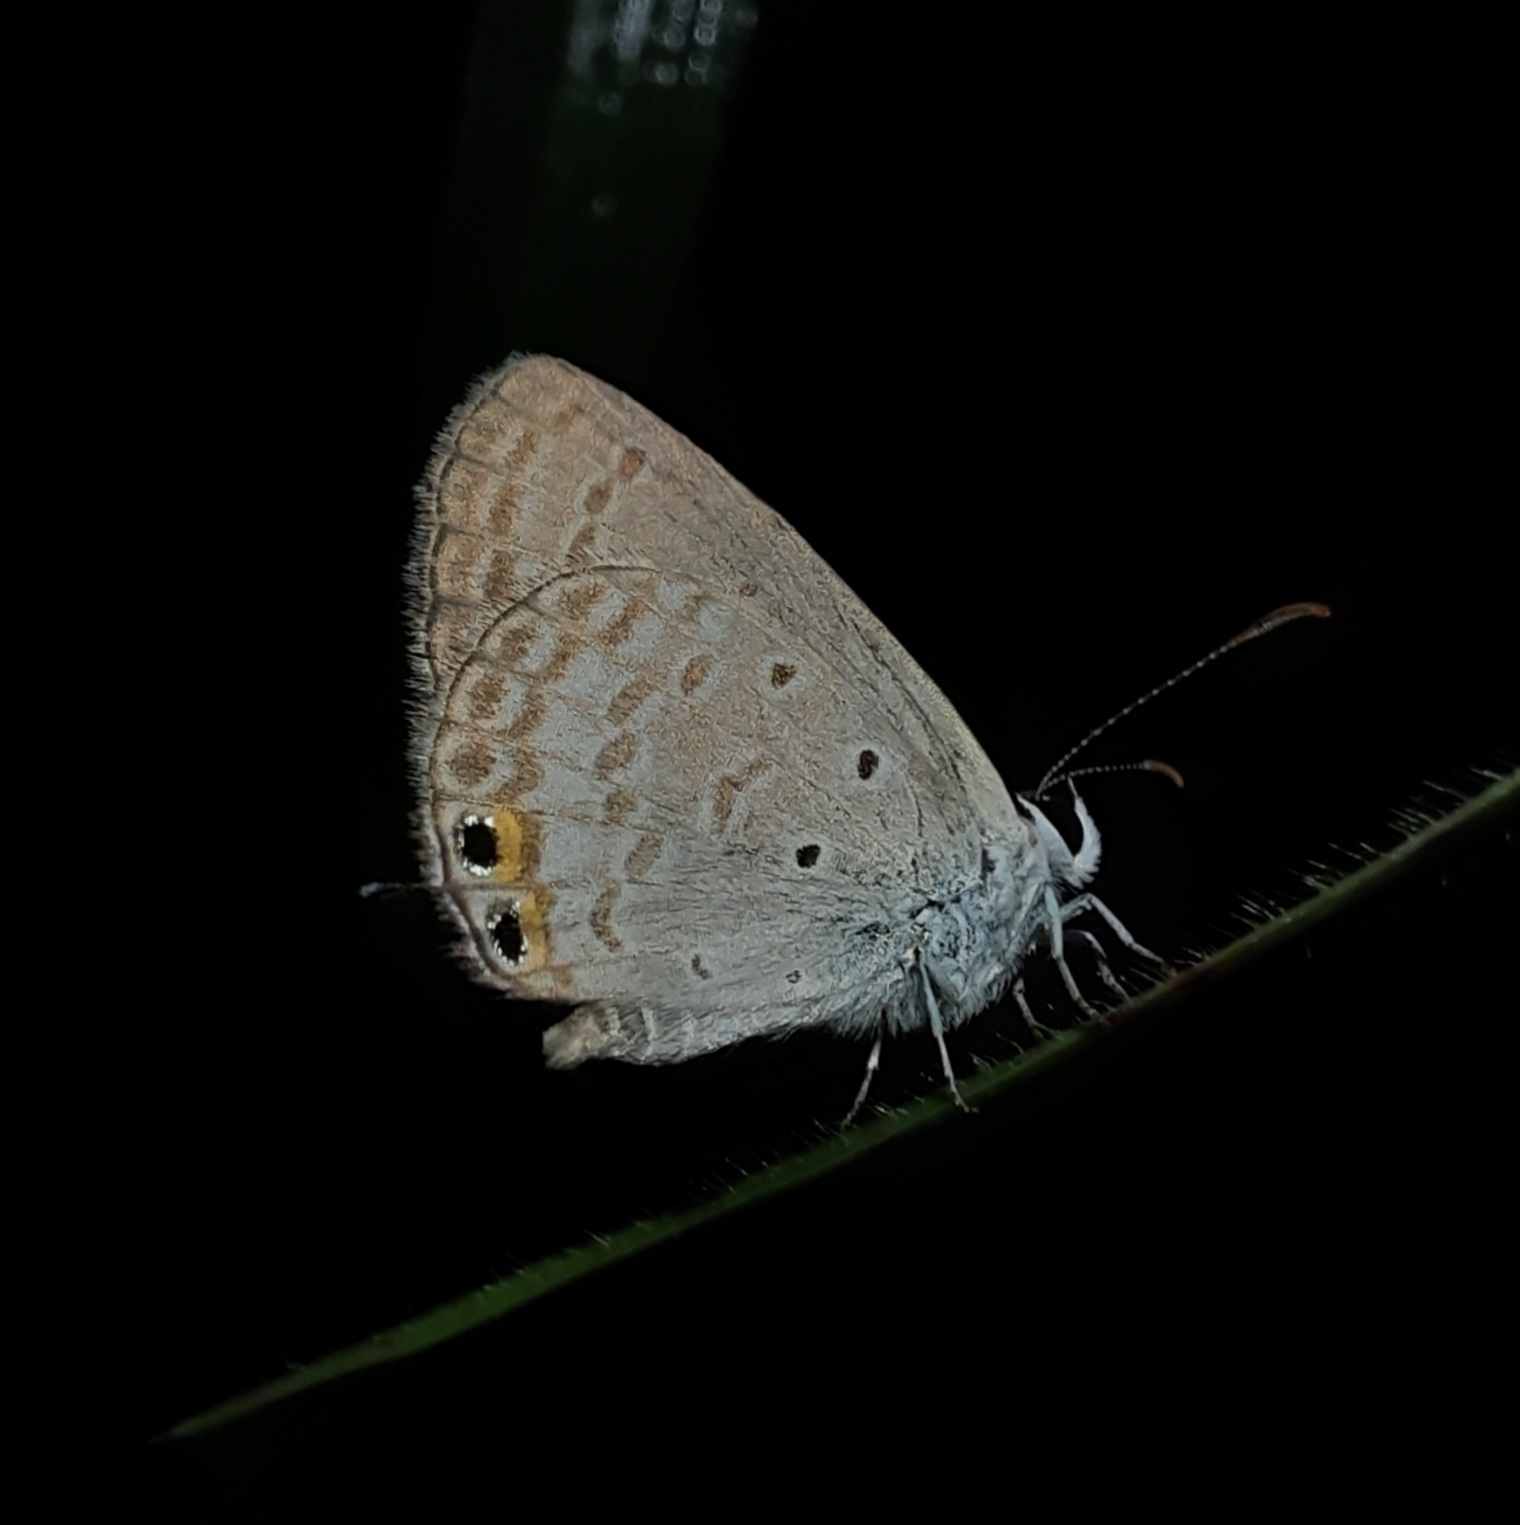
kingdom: Animalia
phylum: Arthropoda
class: Insecta
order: Lepidoptera
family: Lycaenidae
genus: Euchrysops
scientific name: Euchrysops cnejus
